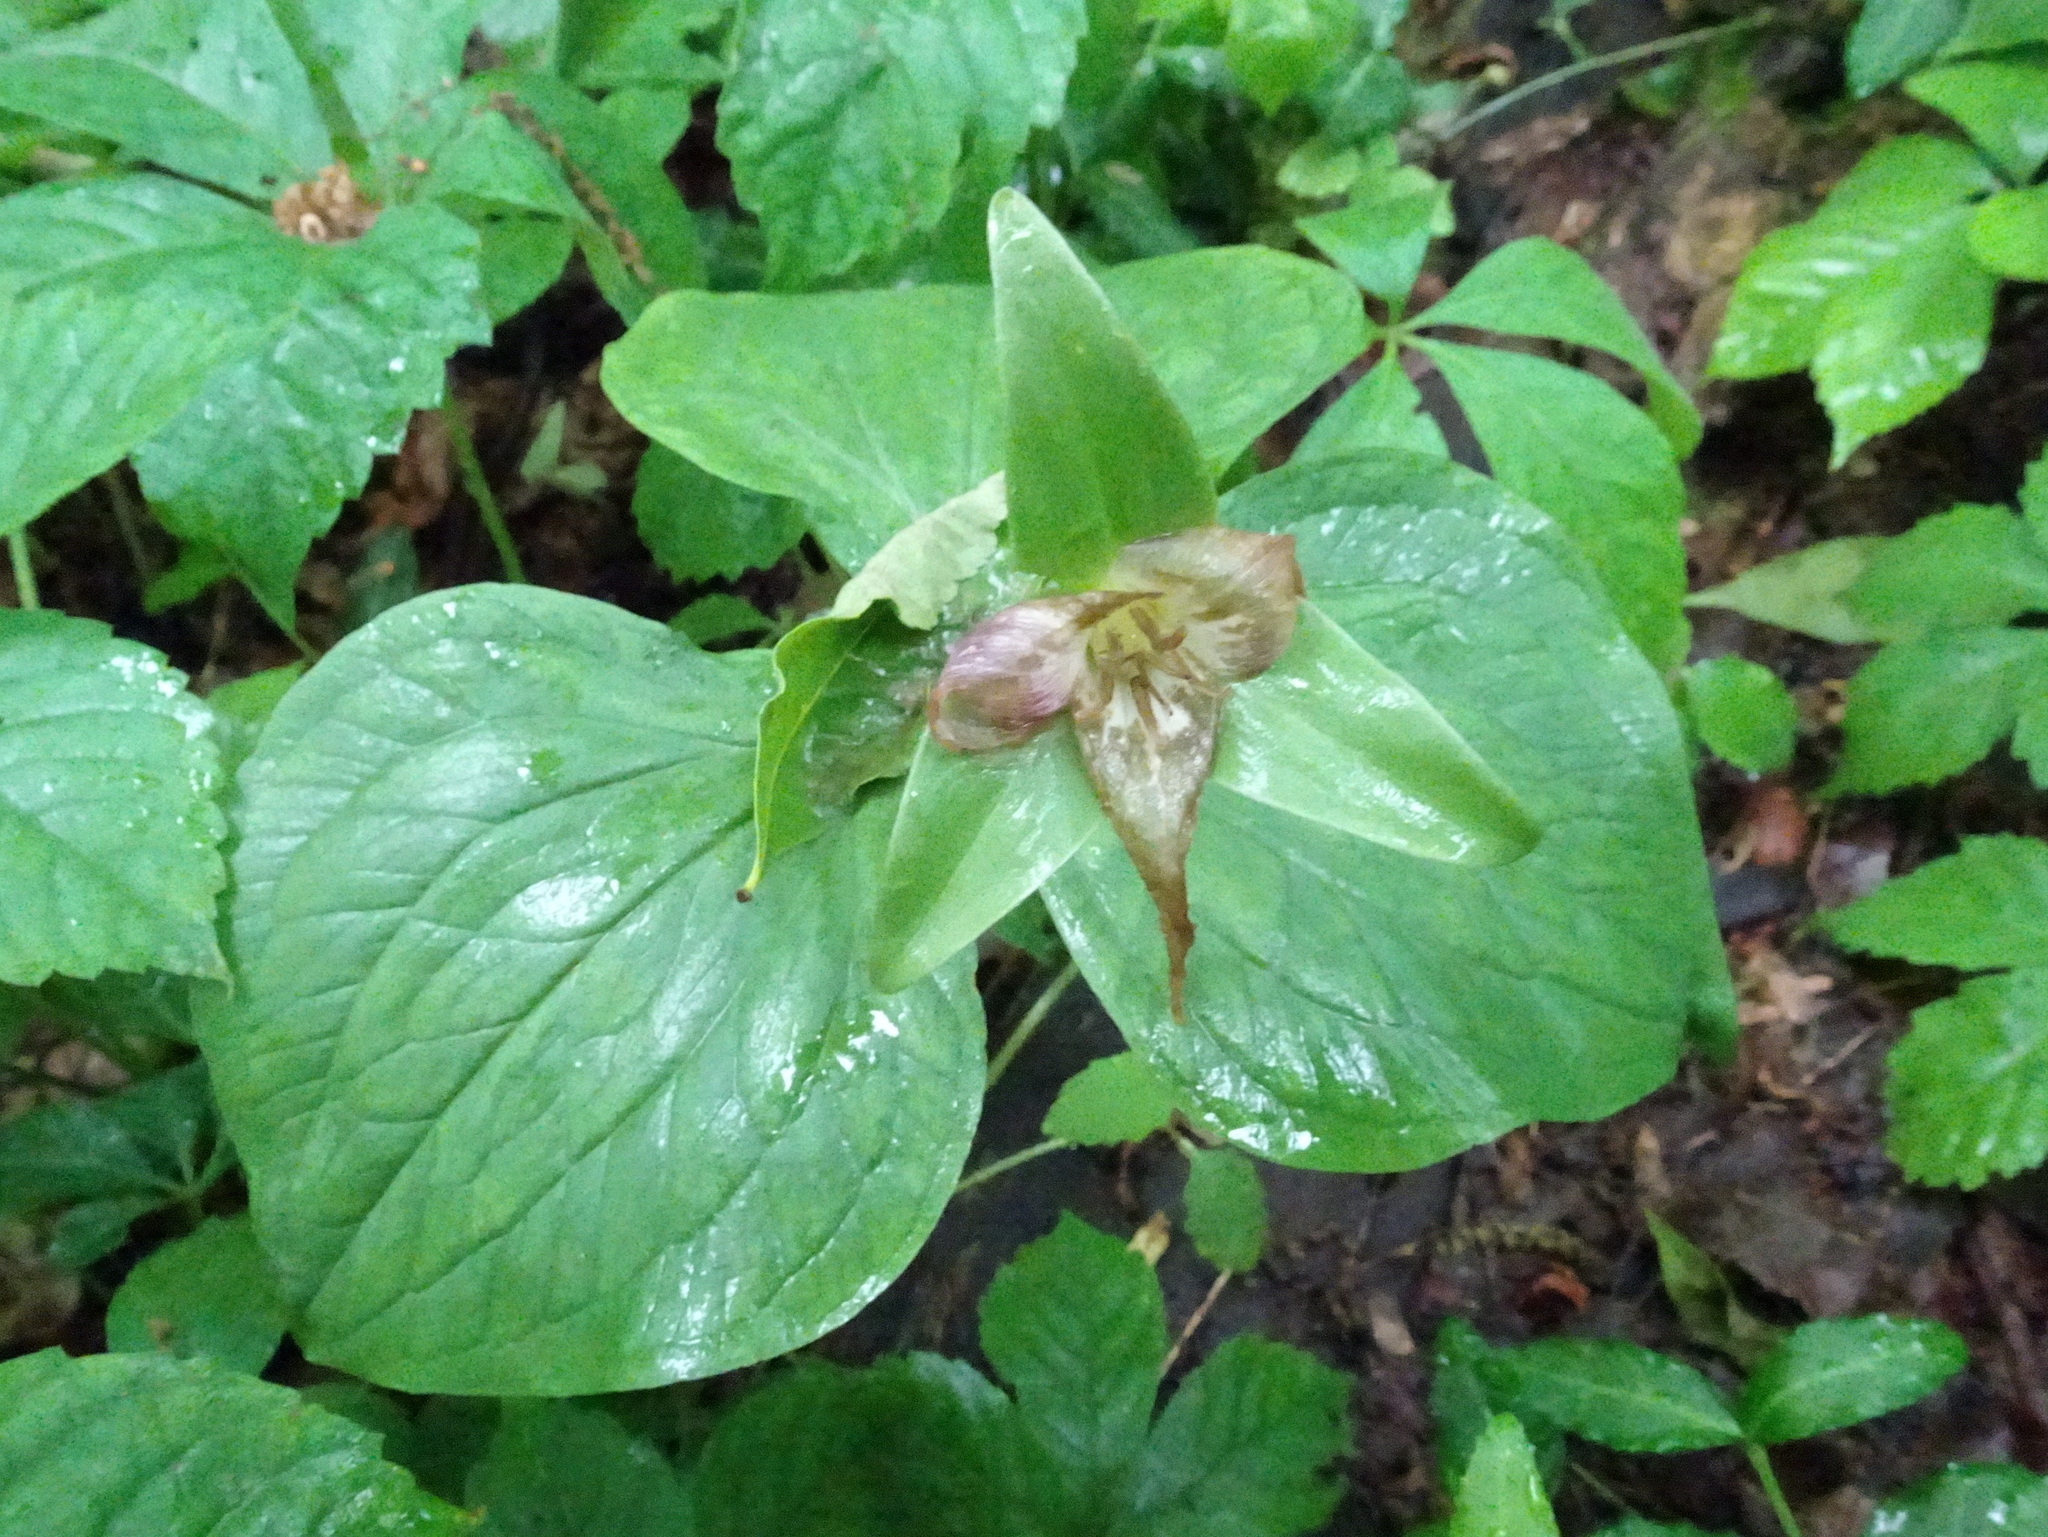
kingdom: Plantae
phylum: Tracheophyta
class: Liliopsida
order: Liliales
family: Melanthiaceae
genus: Trillium
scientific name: Trillium grandiflorum
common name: Great white trillium
